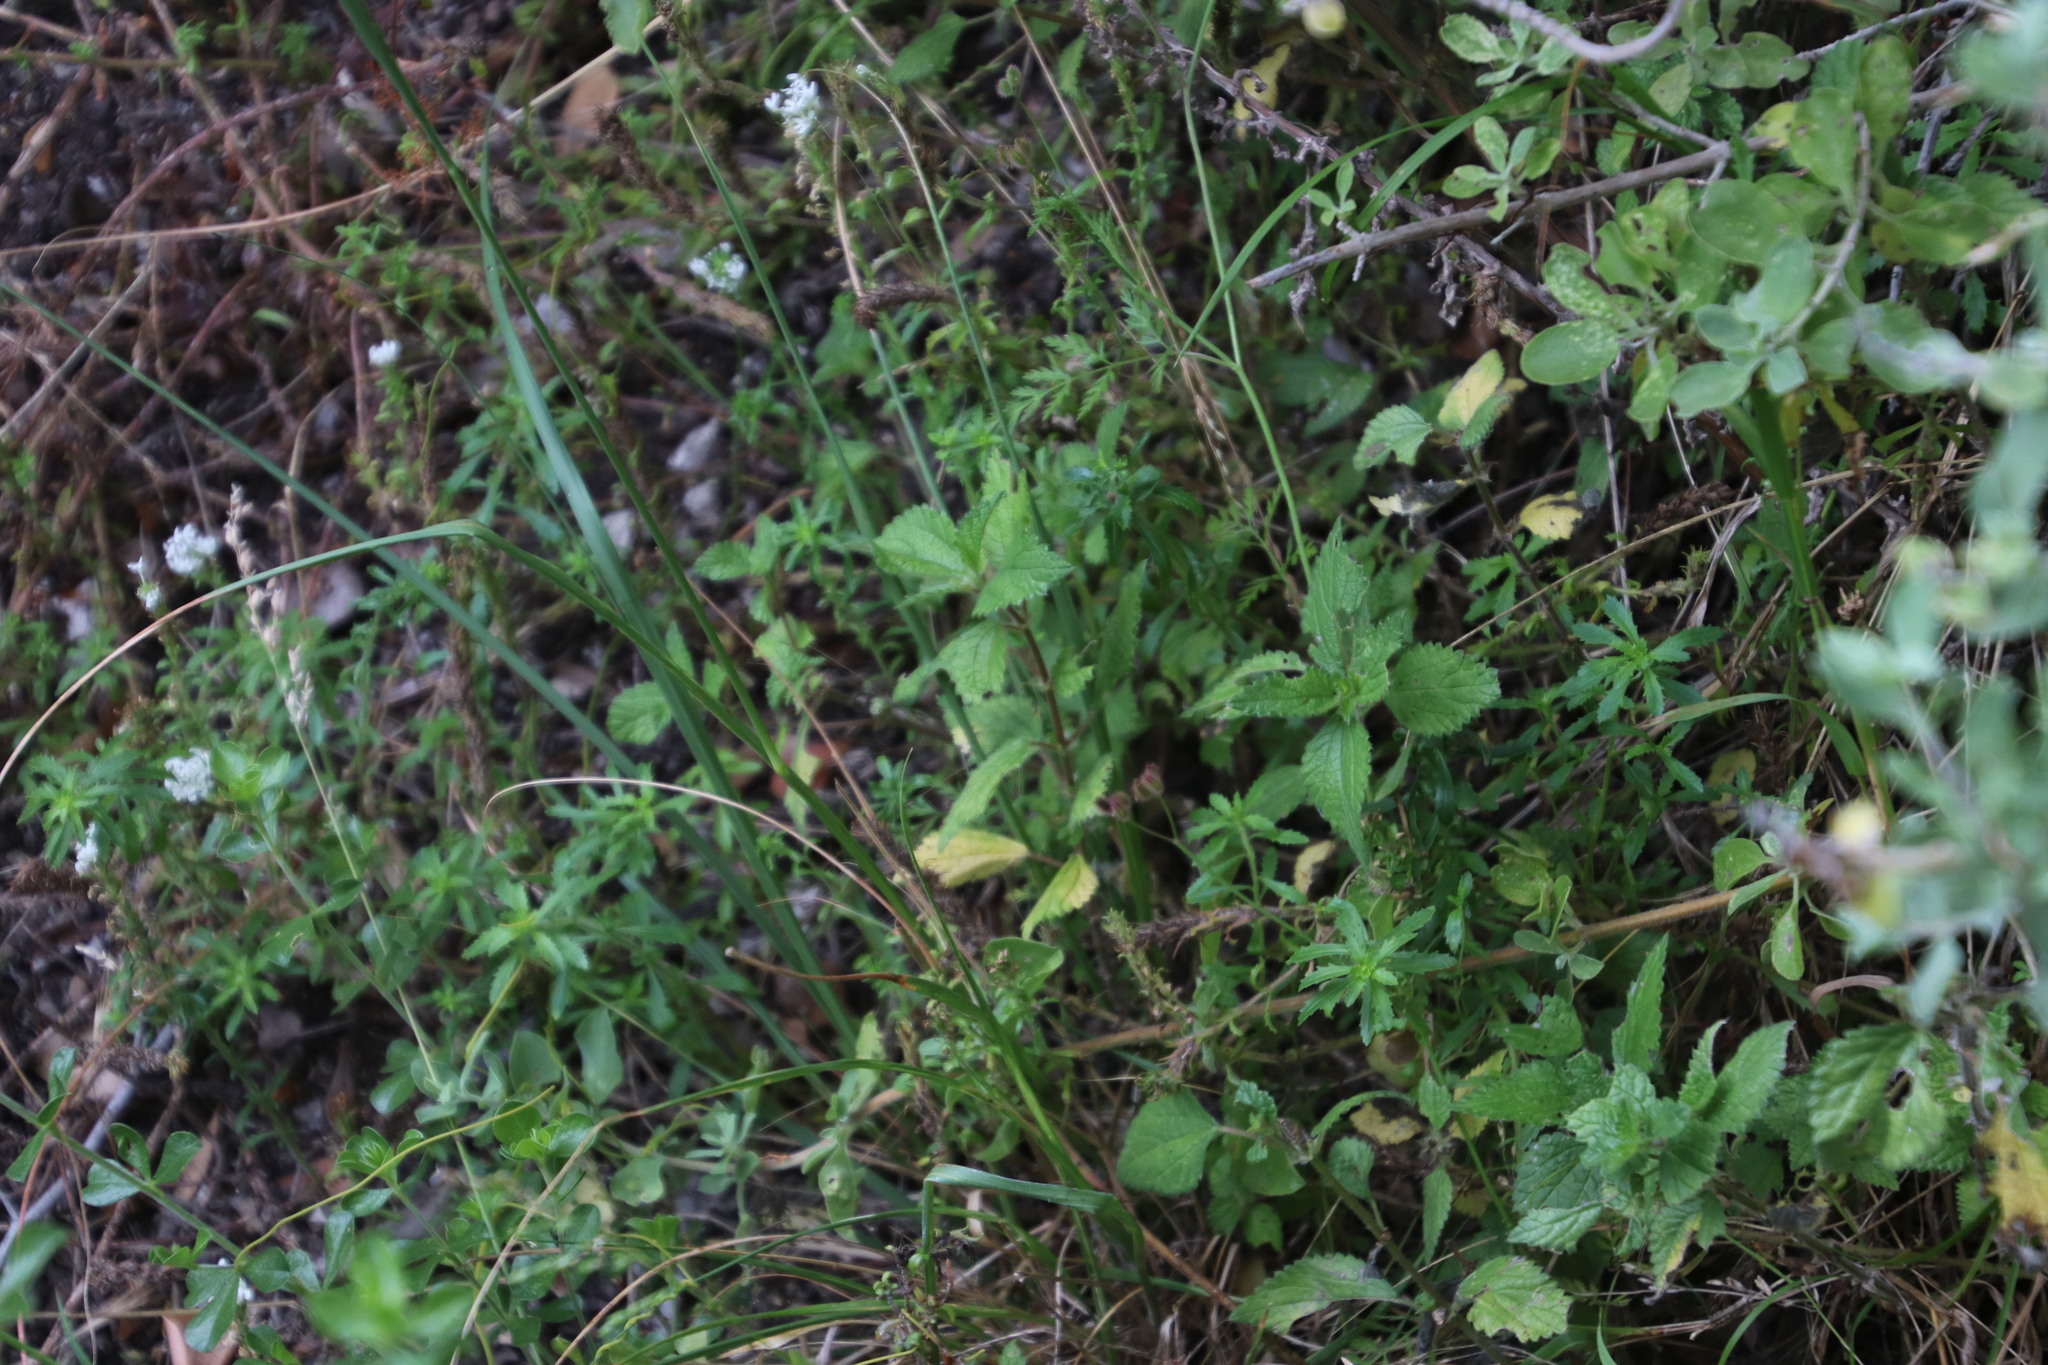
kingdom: Plantae
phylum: Tracheophyta
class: Magnoliopsida
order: Rosales
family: Urticaceae
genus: Droguetia
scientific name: Droguetia iners
